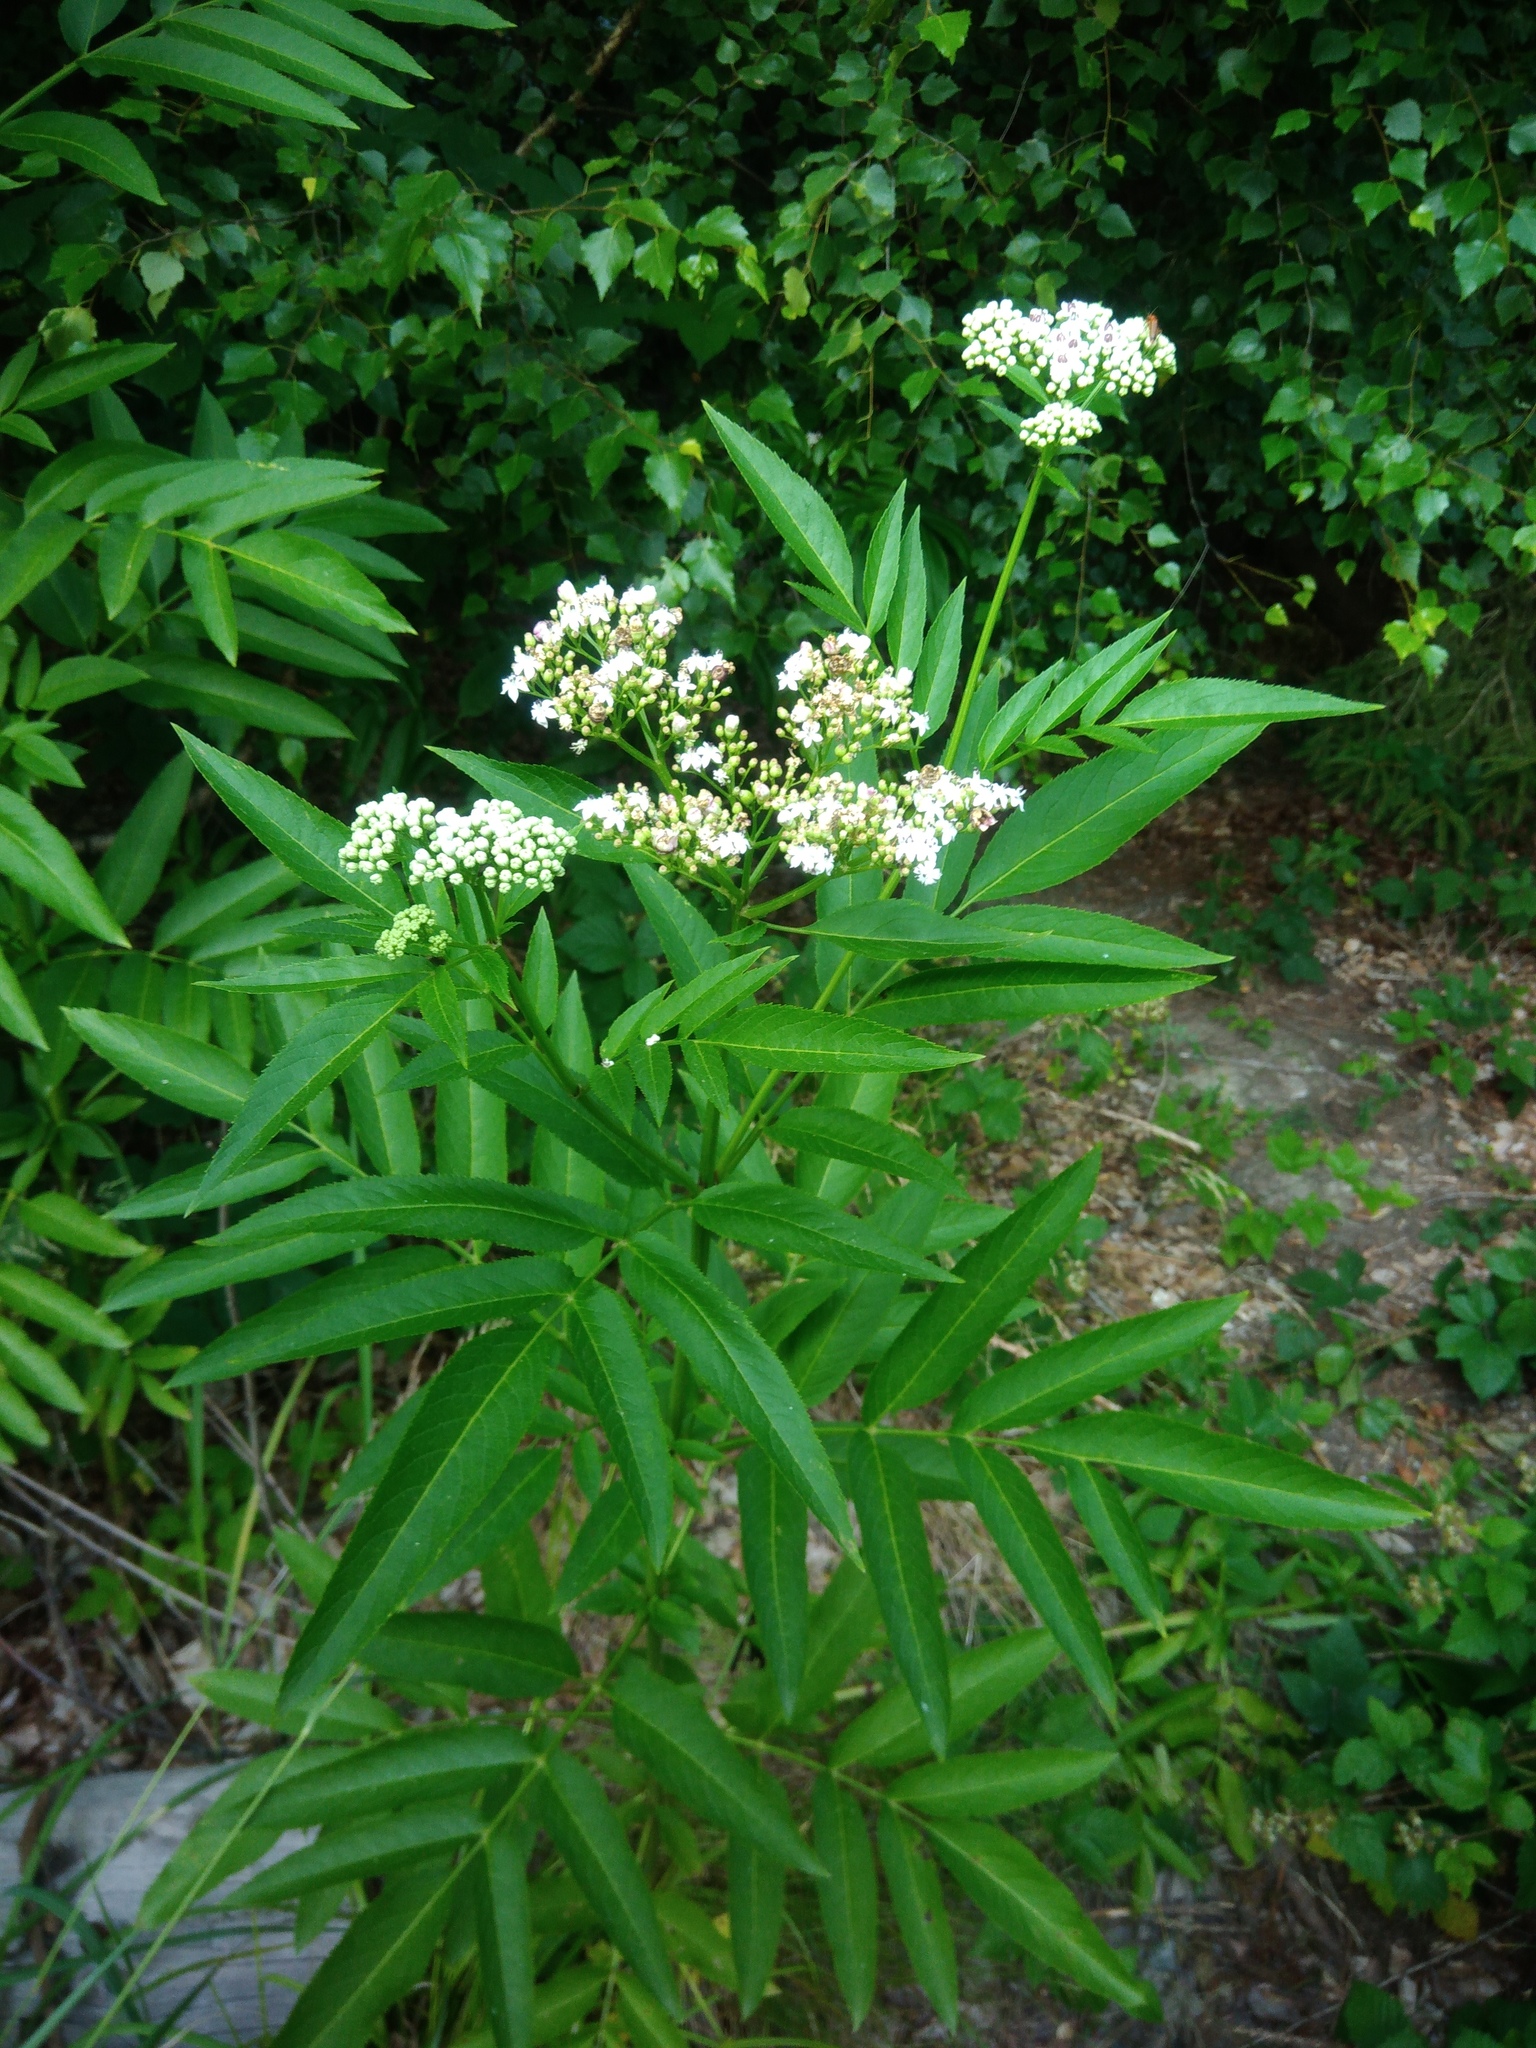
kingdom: Plantae
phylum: Tracheophyta
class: Magnoliopsida
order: Dipsacales
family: Viburnaceae
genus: Sambucus
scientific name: Sambucus ebulus
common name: Dwarf elder
